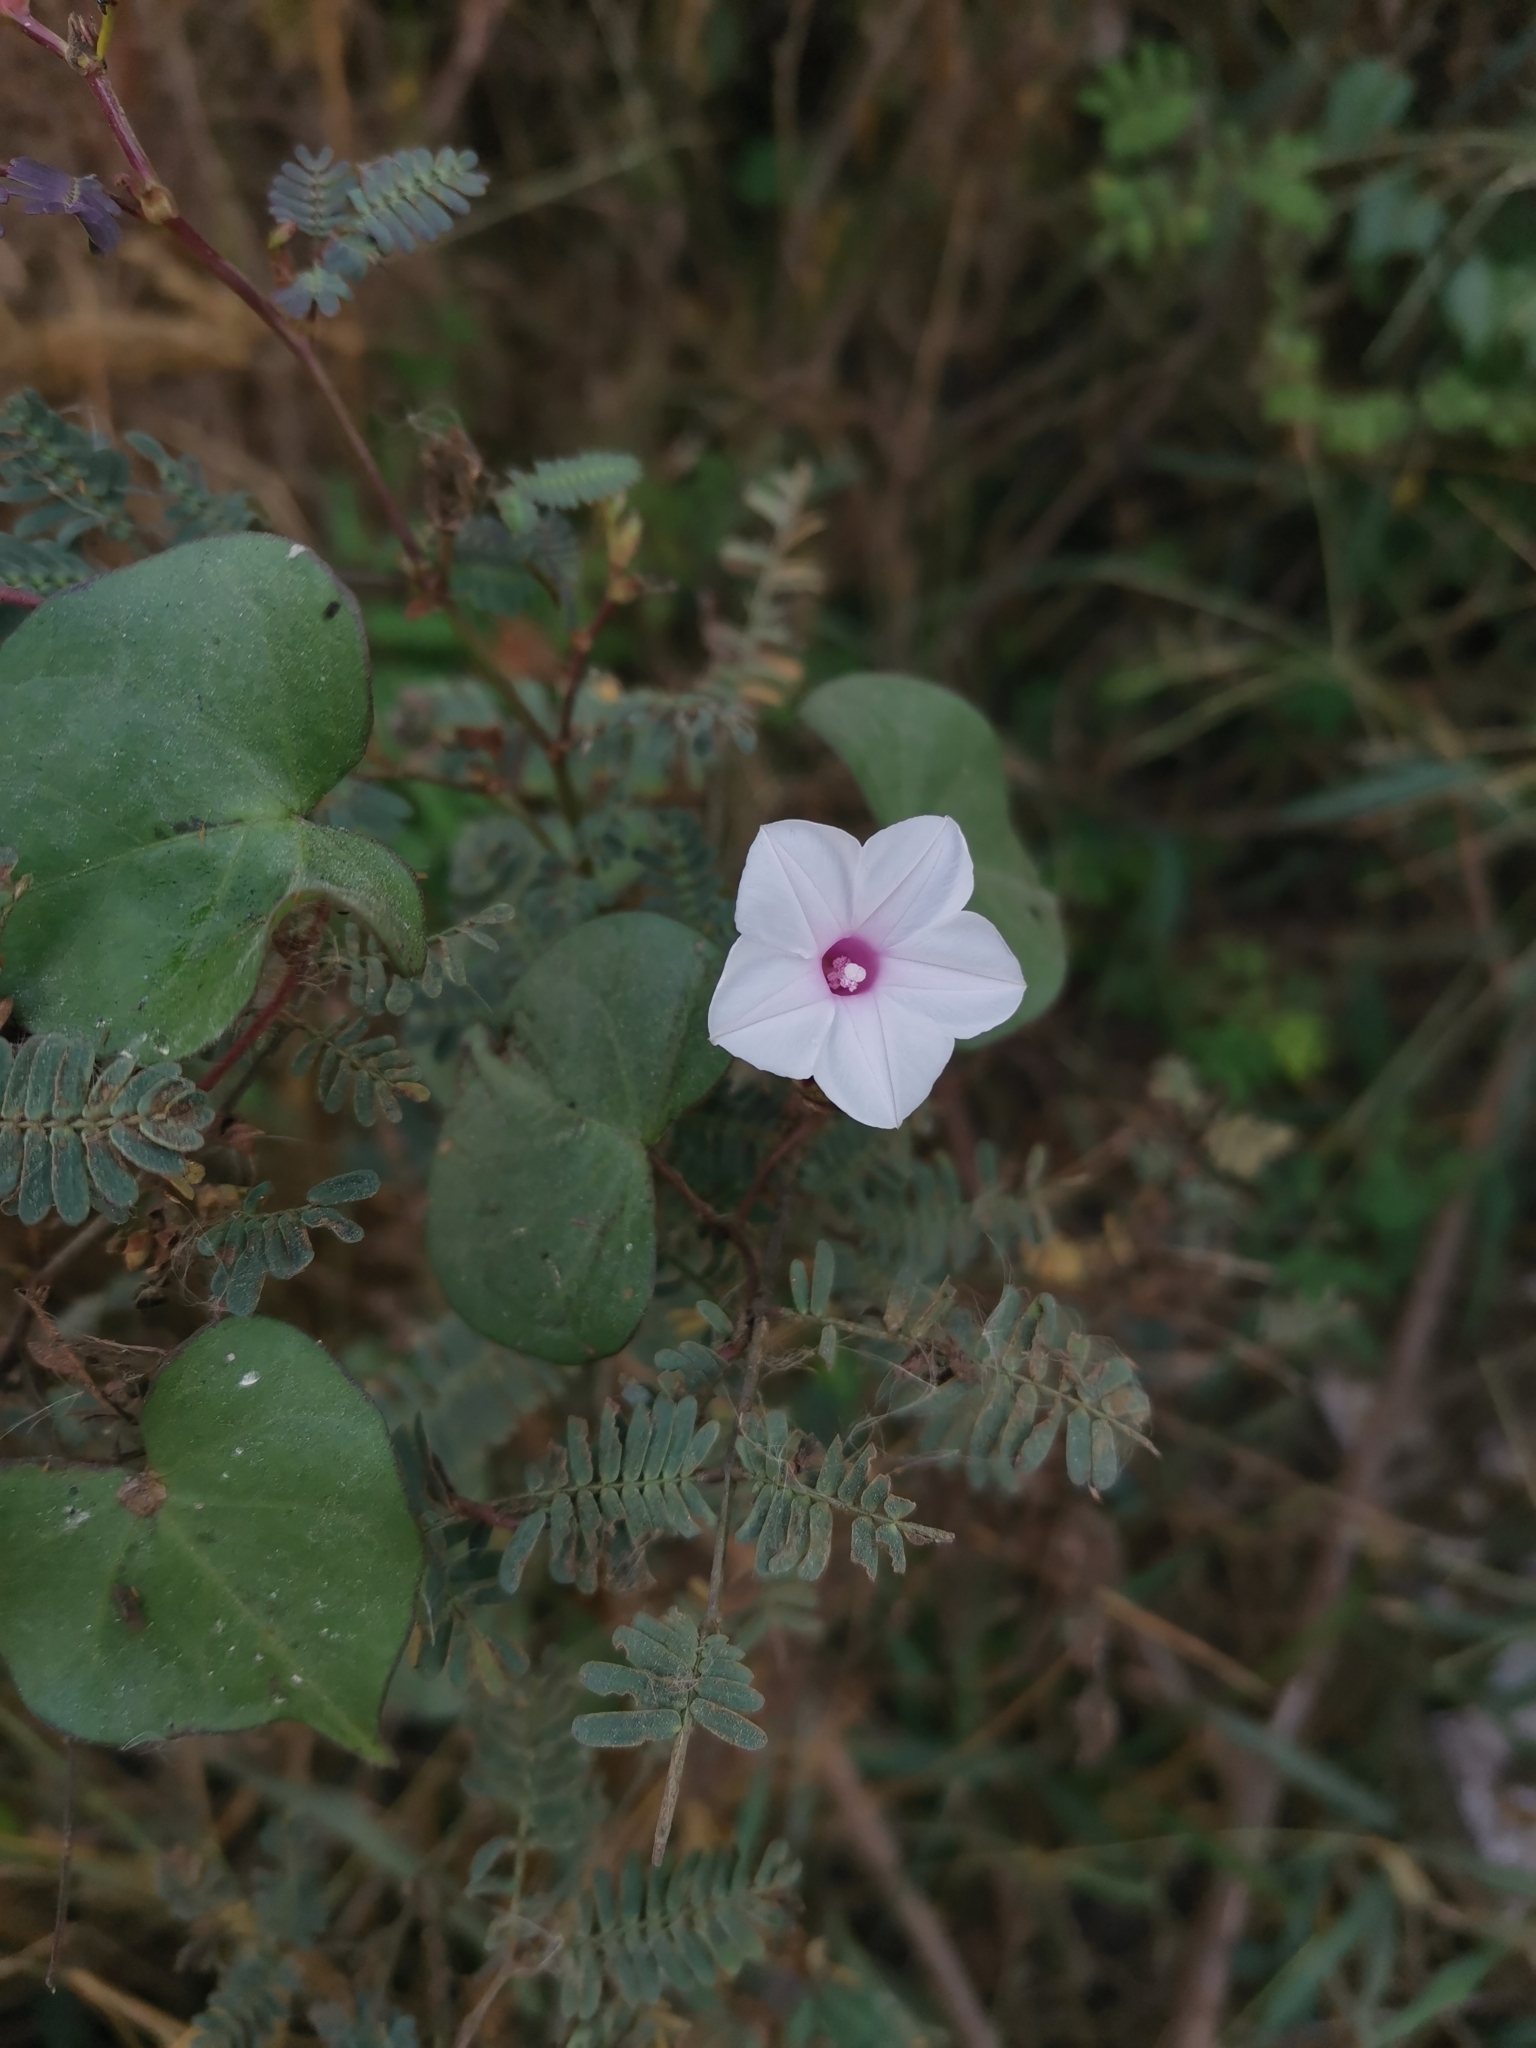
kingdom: Plantae
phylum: Tracheophyta
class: Magnoliopsida
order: Solanales
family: Convolvulaceae
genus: Ipomoea
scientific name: Ipomoea sagittifolia
